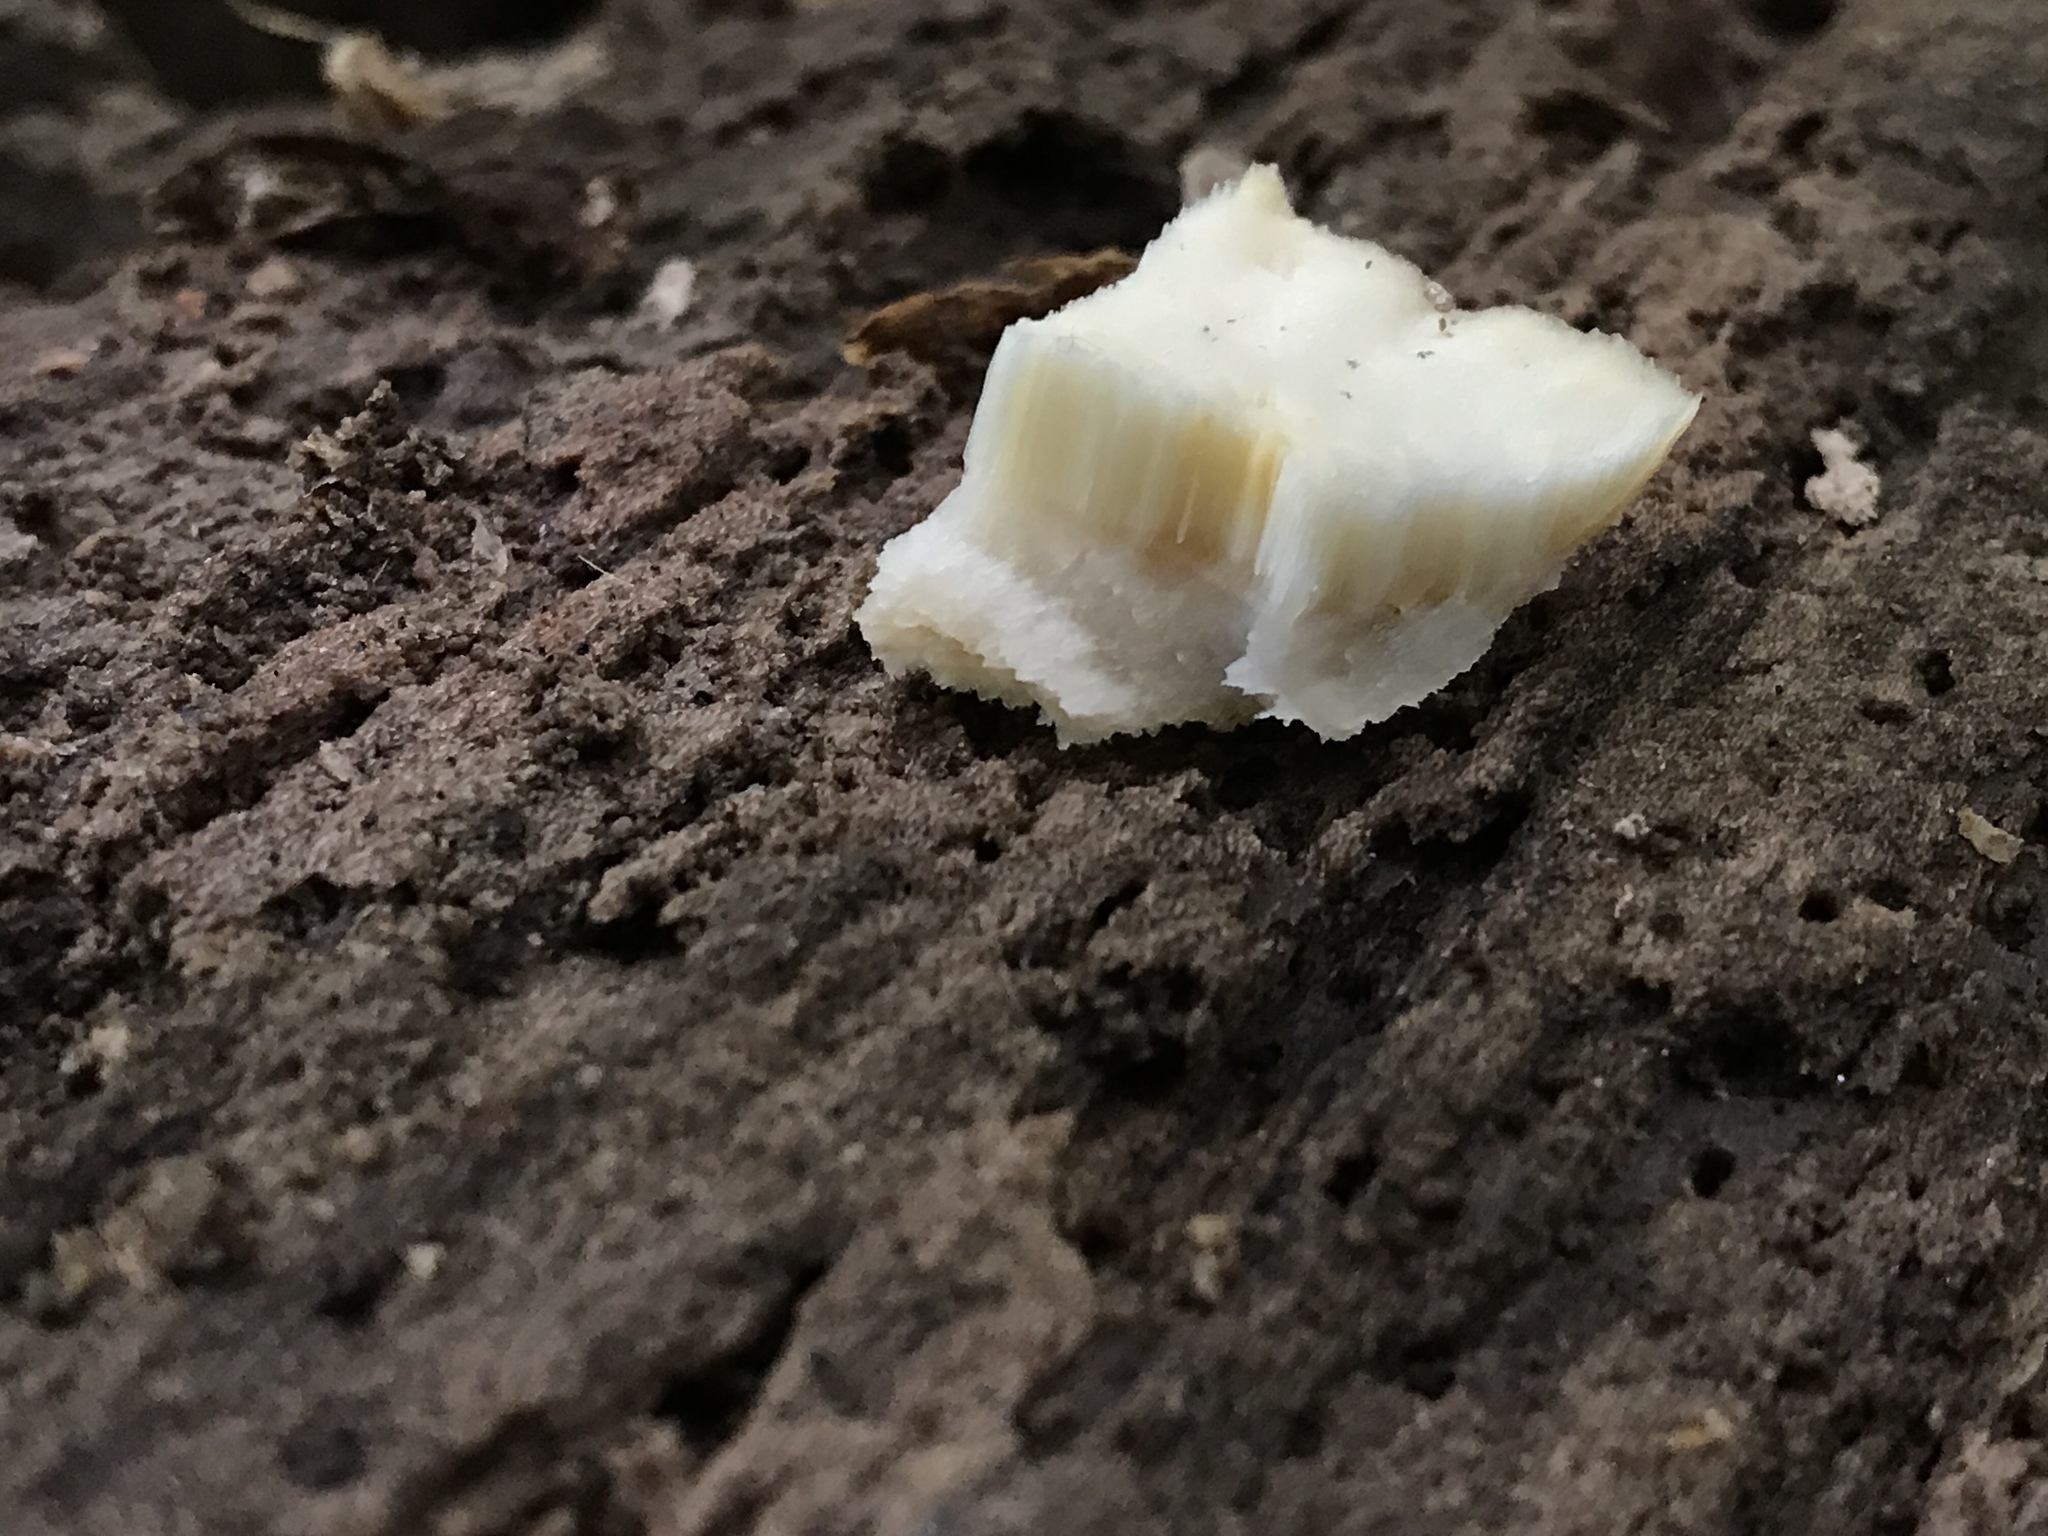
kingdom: Fungi
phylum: Basidiomycota
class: Agaricomycetes
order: Polyporales
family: Incrustoporiaceae
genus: Tyromyces
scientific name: Tyromyces chioneus
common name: White cheese polypore
